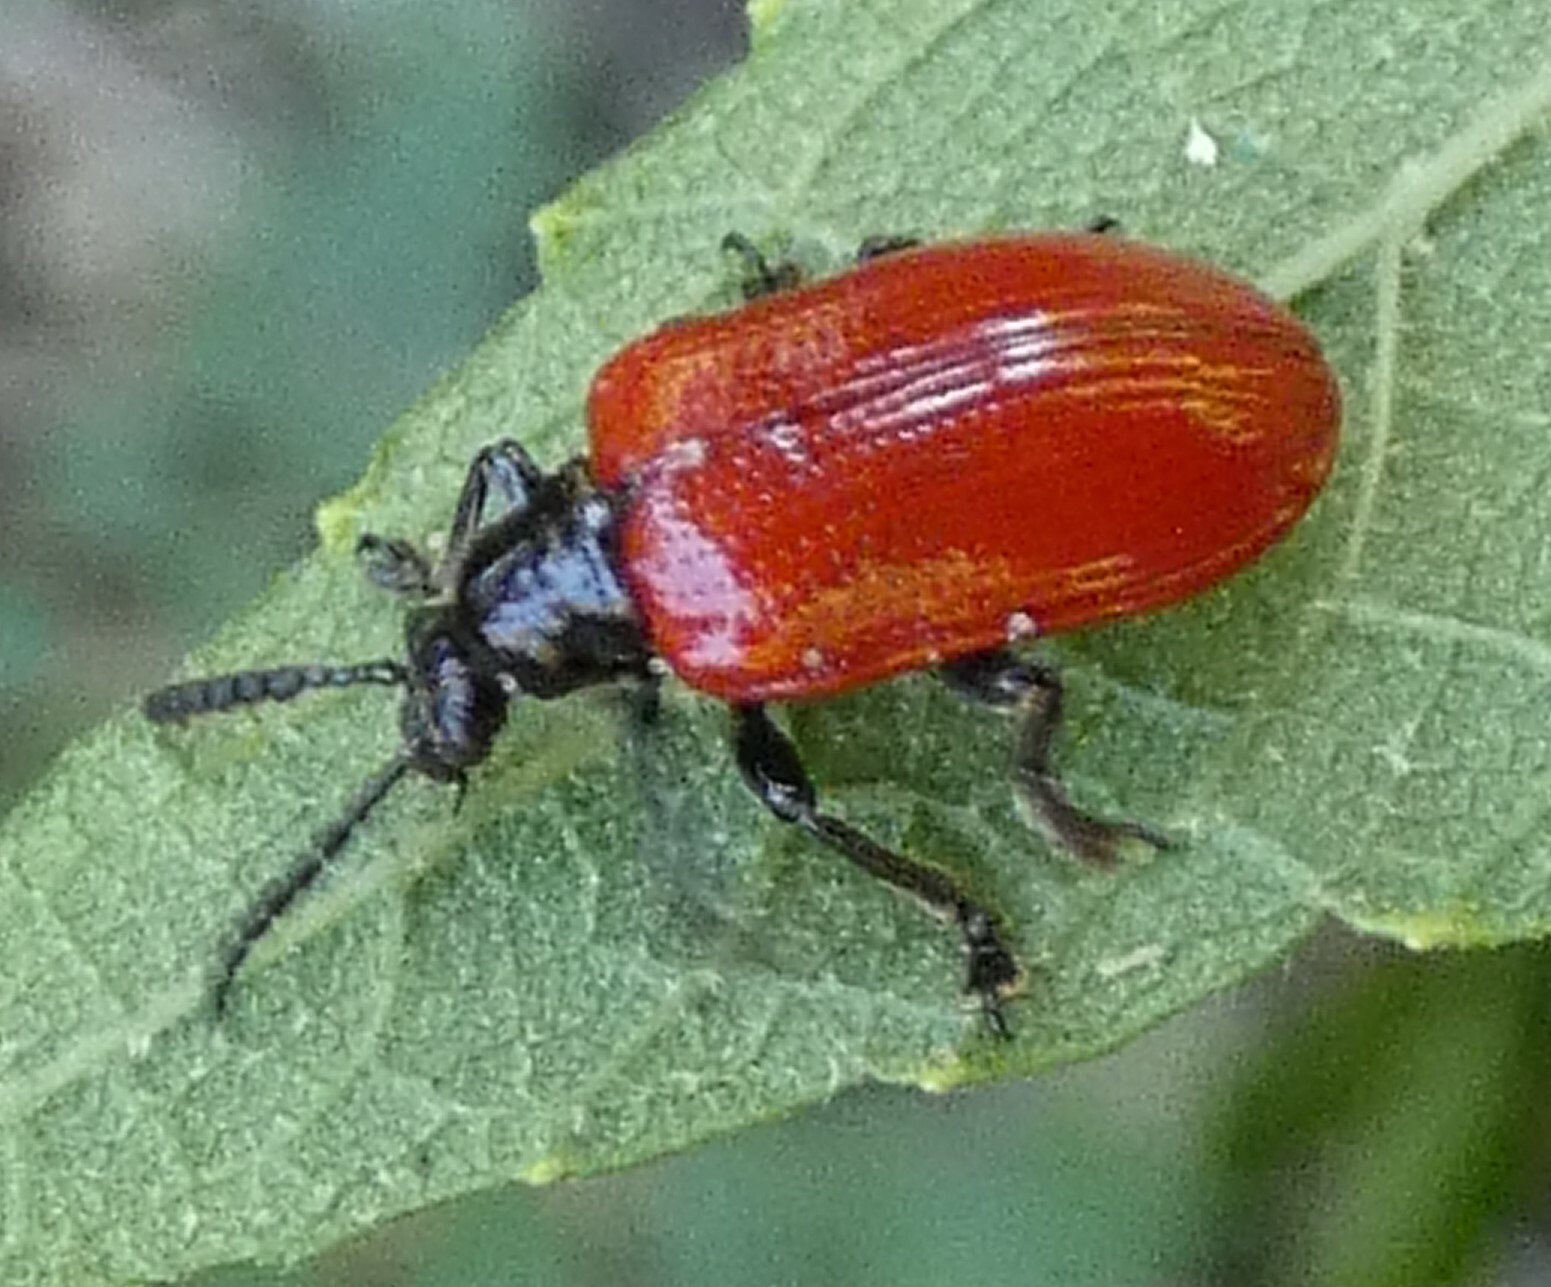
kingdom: Animalia
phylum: Arthropoda
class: Insecta
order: Coleoptera
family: Chrysomelidae
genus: Lilioceris
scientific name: Lilioceris cheni
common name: Leaf beetle
